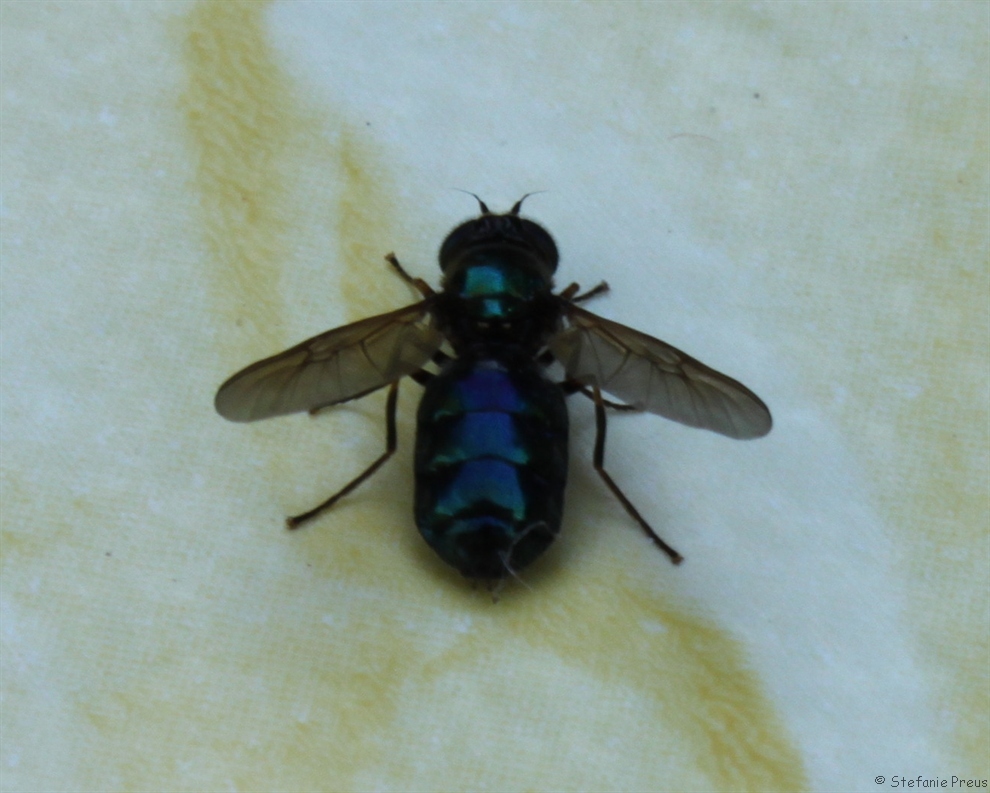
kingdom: Animalia
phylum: Arthropoda
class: Insecta
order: Diptera
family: Stratiomyidae
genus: Chloromyia
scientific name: Chloromyia formosa
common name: Soldier fly
